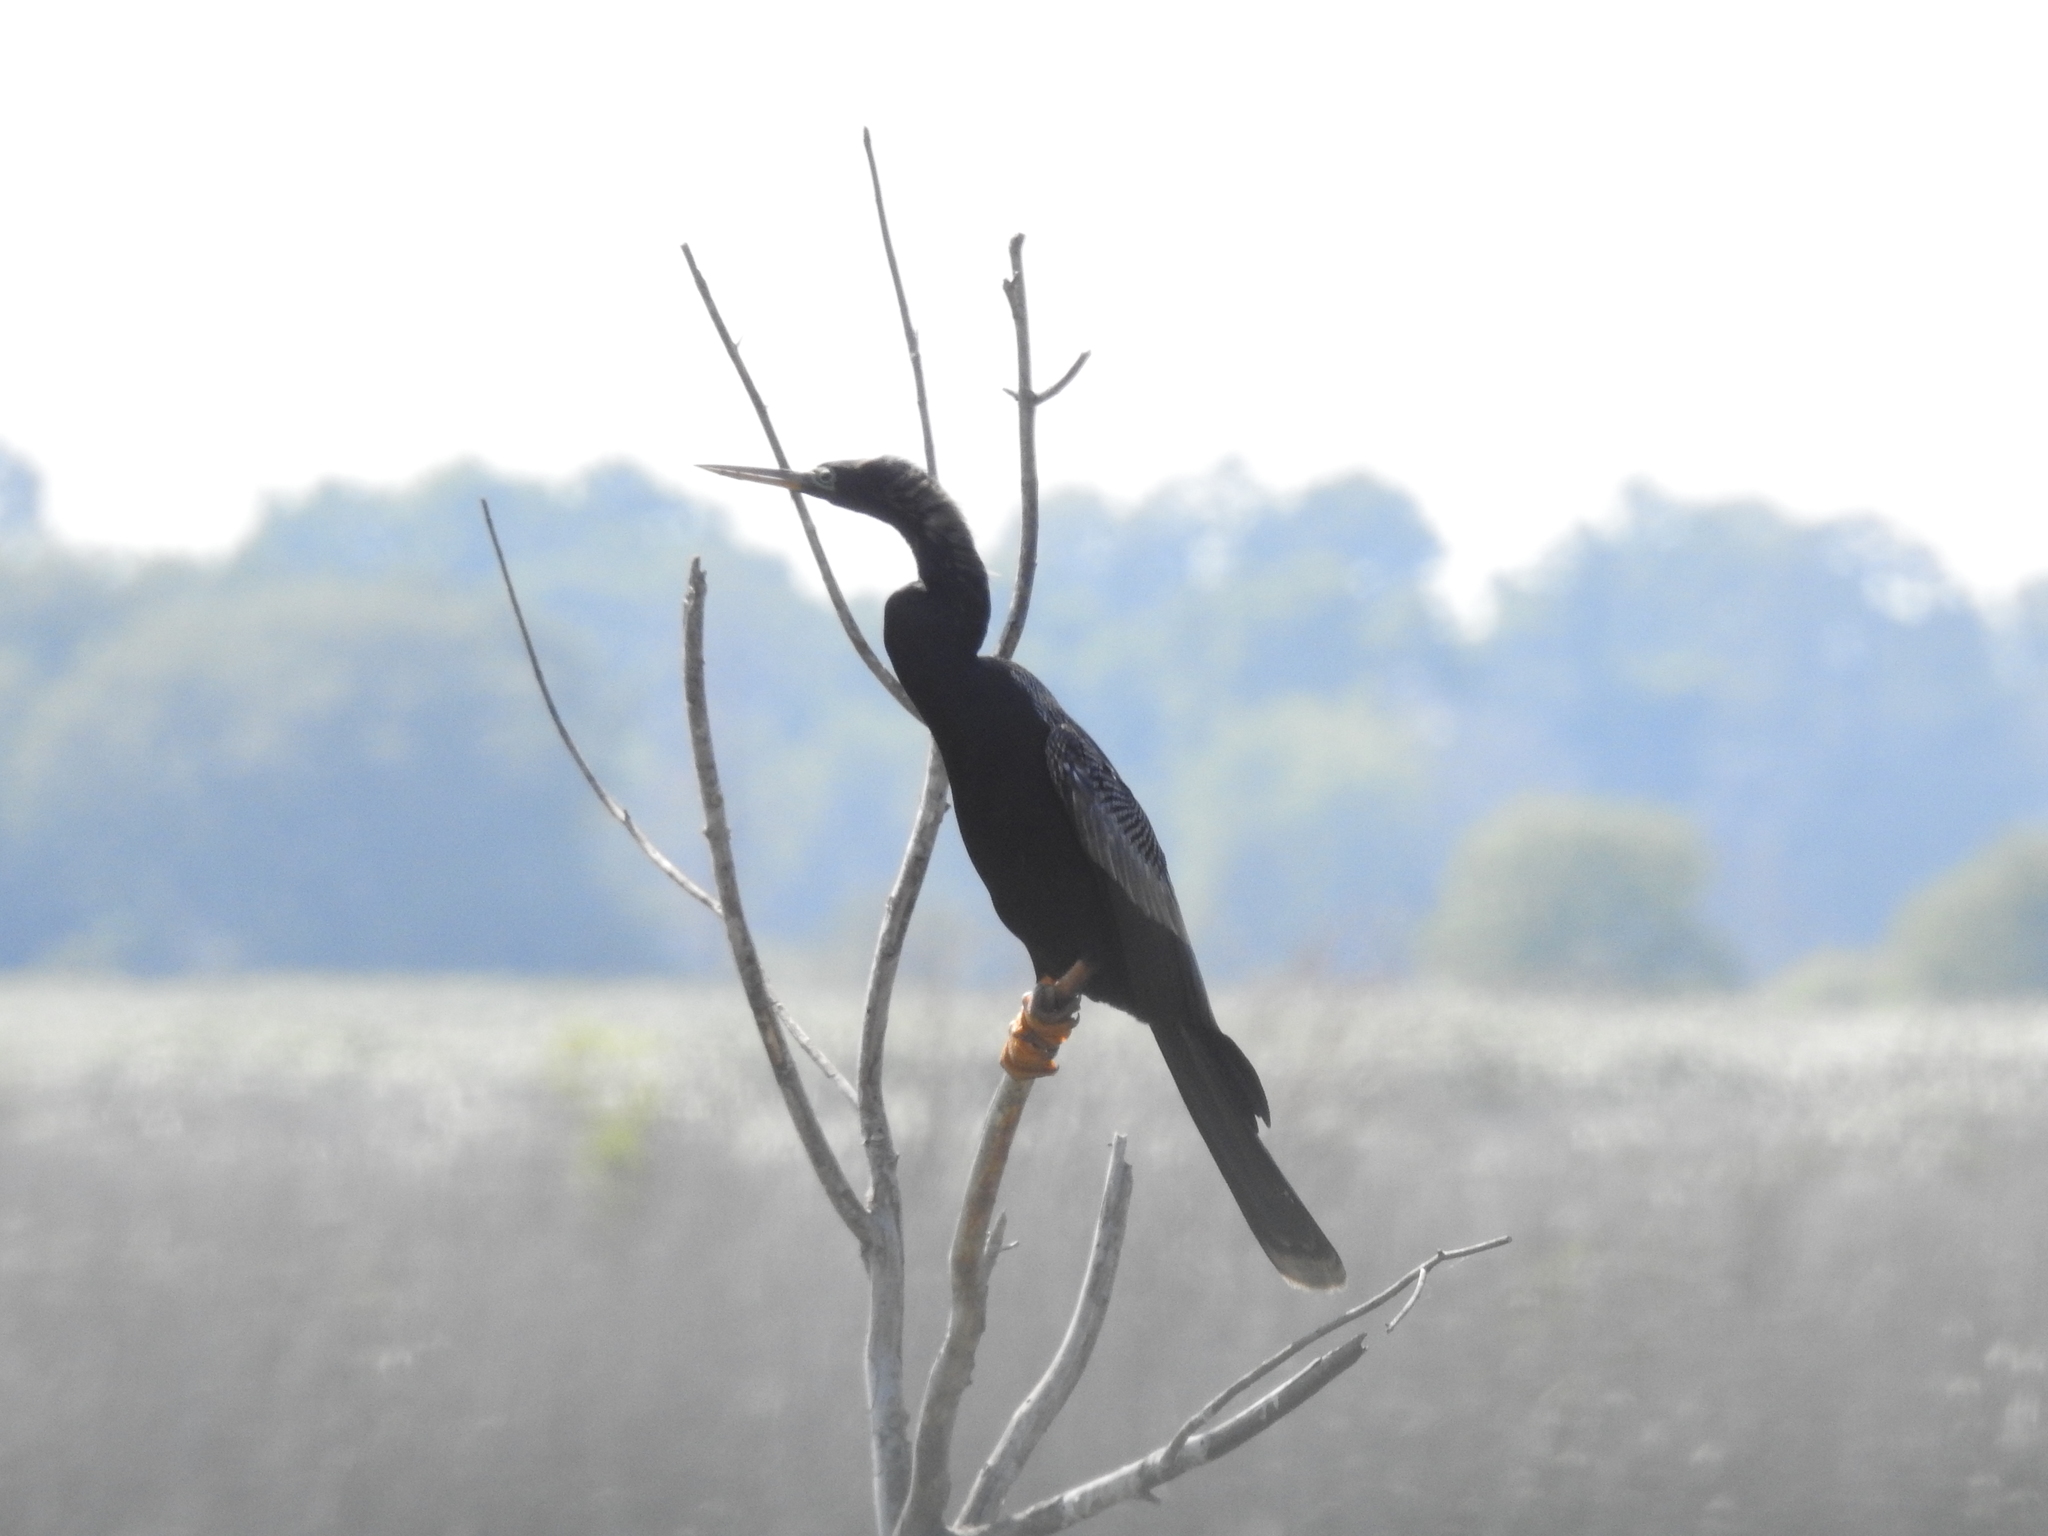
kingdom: Animalia
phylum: Chordata
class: Aves
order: Suliformes
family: Anhingidae
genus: Anhinga
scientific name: Anhinga anhinga
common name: Anhinga
